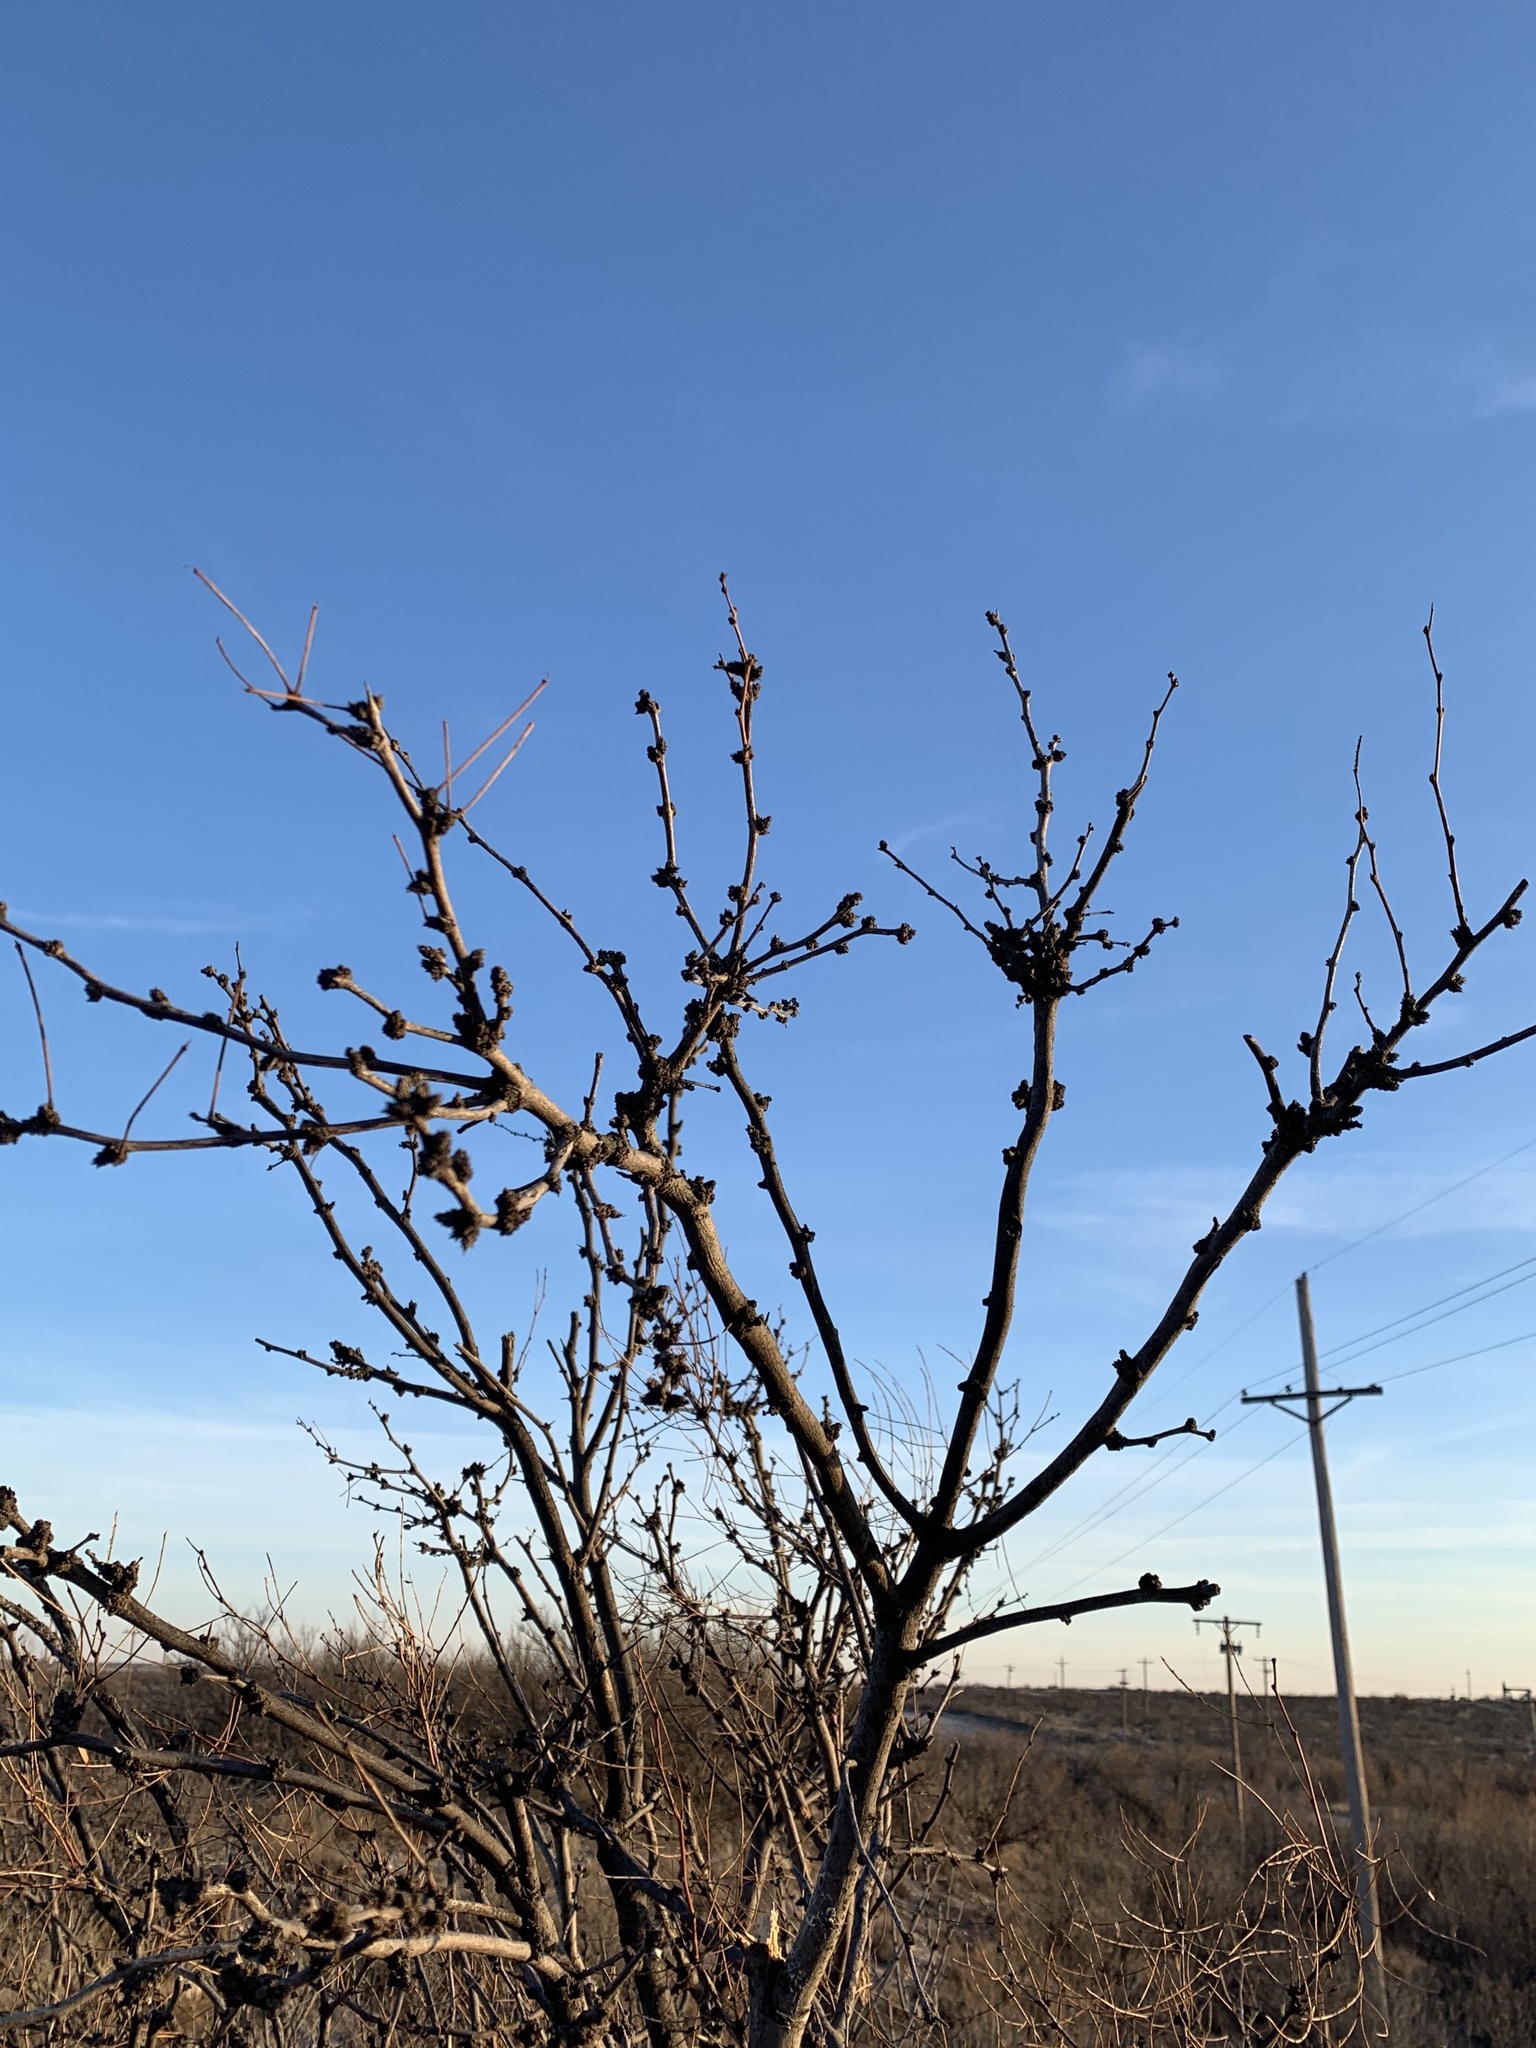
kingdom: Plantae
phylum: Tracheophyta
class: Magnoliopsida
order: Fabales
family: Fabaceae
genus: Prosopis
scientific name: Prosopis glandulosa
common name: Honey mesquite
